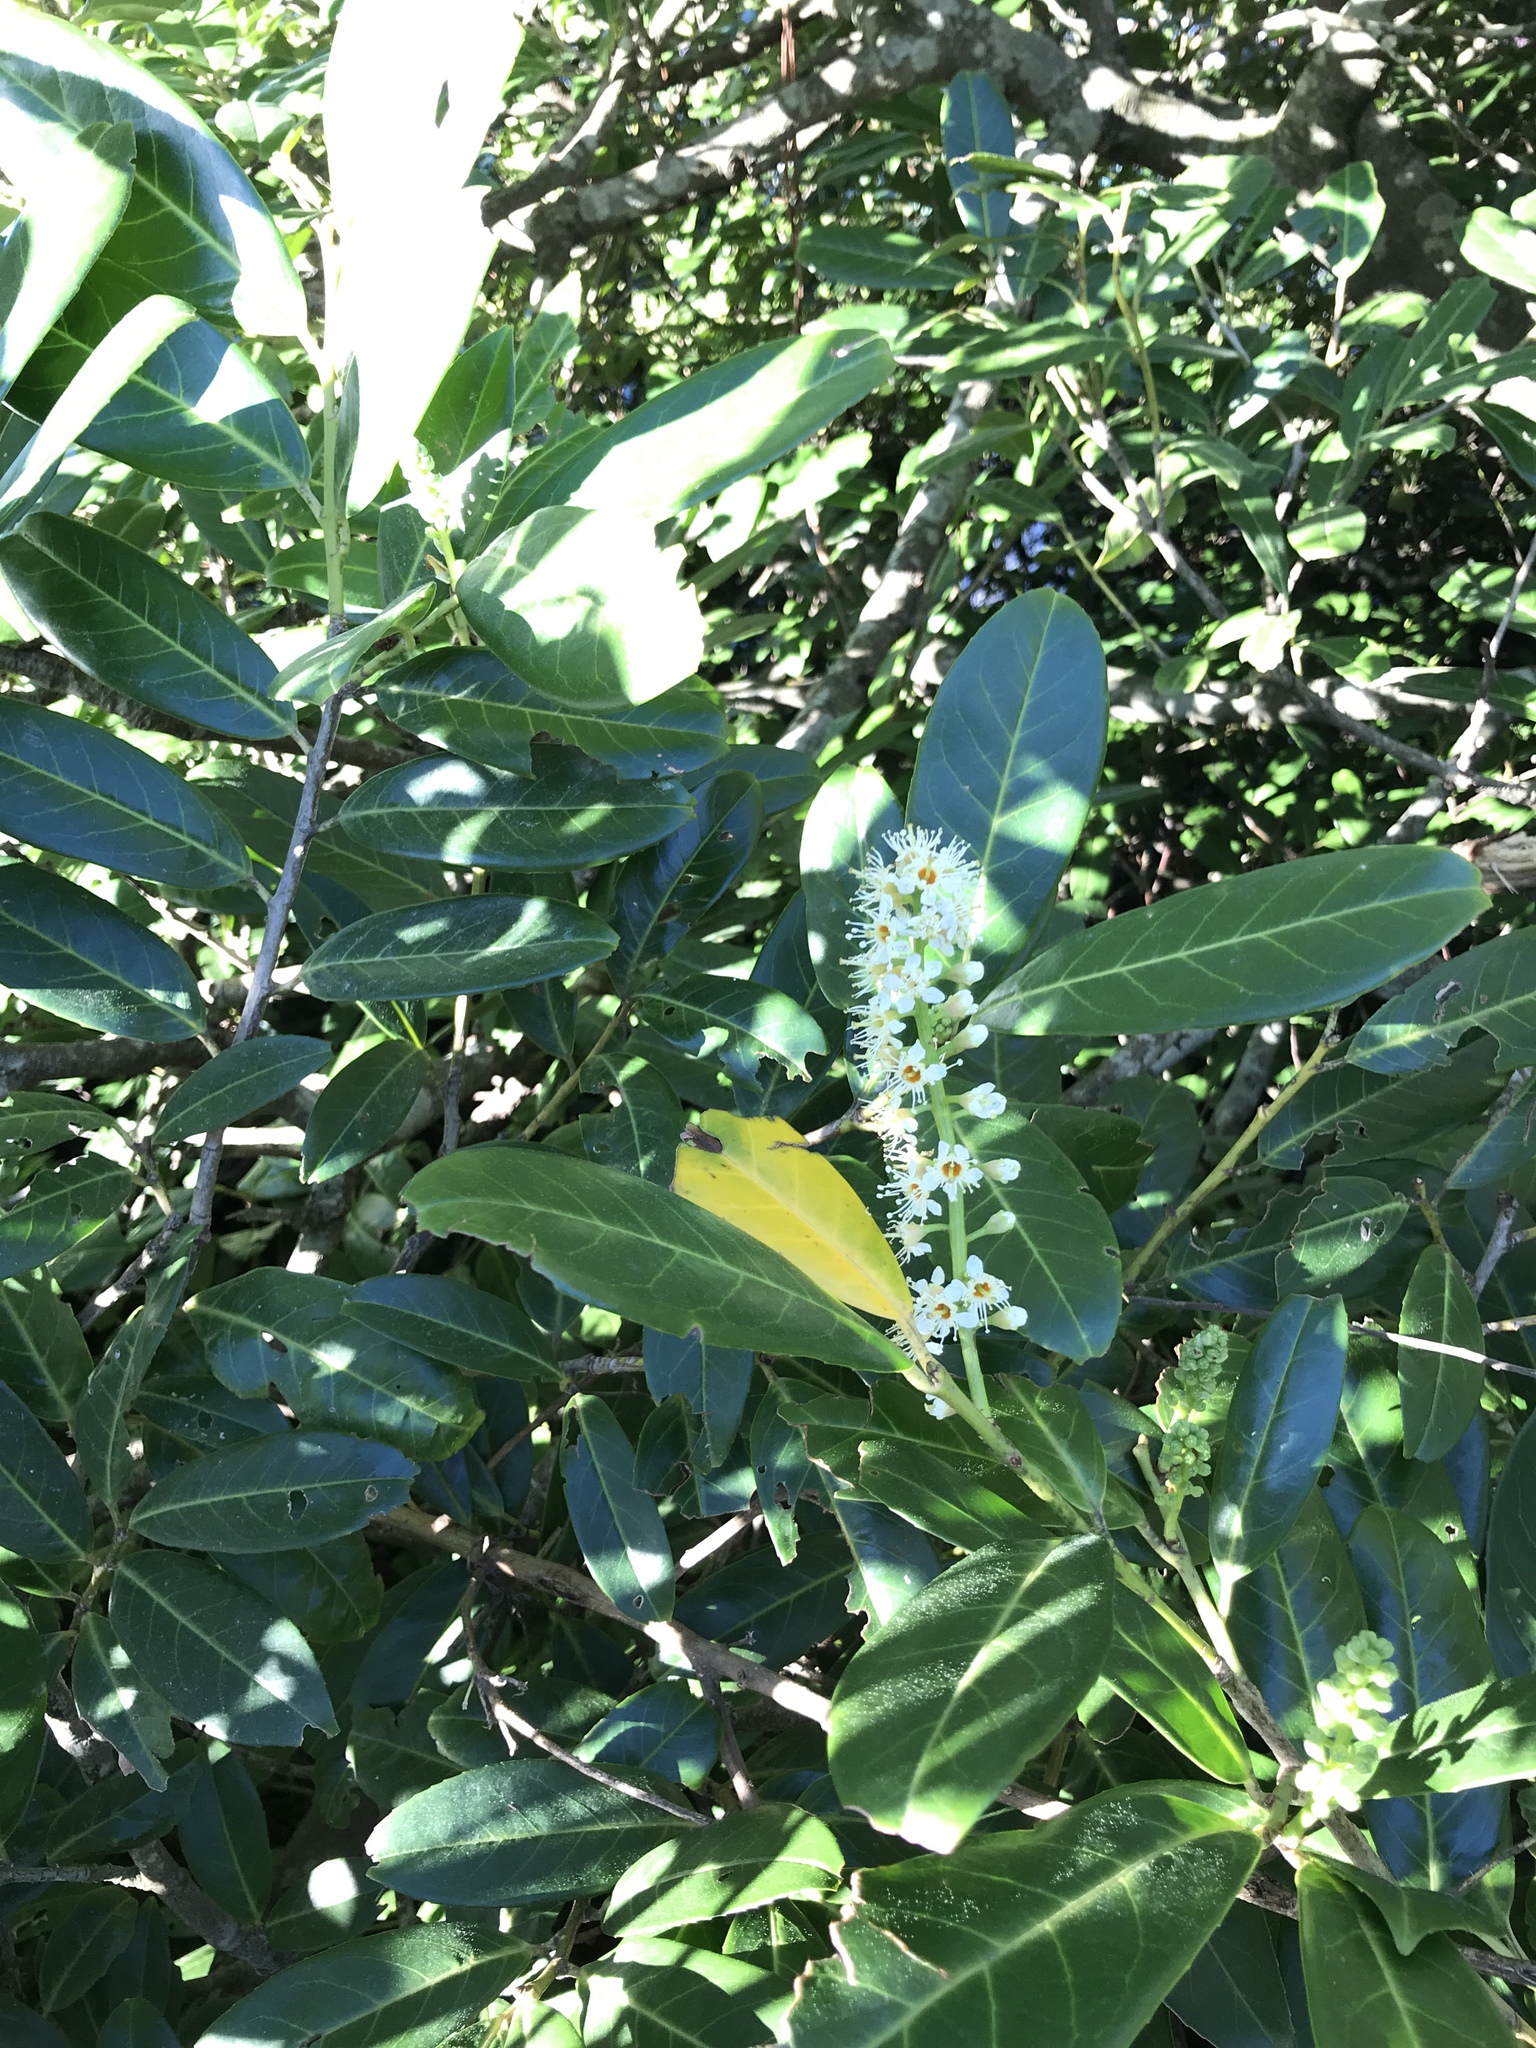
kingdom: Plantae
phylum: Tracheophyta
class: Magnoliopsida
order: Rosales
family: Rosaceae
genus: Prunus
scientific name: Prunus laurocerasus
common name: Cherry laurel
